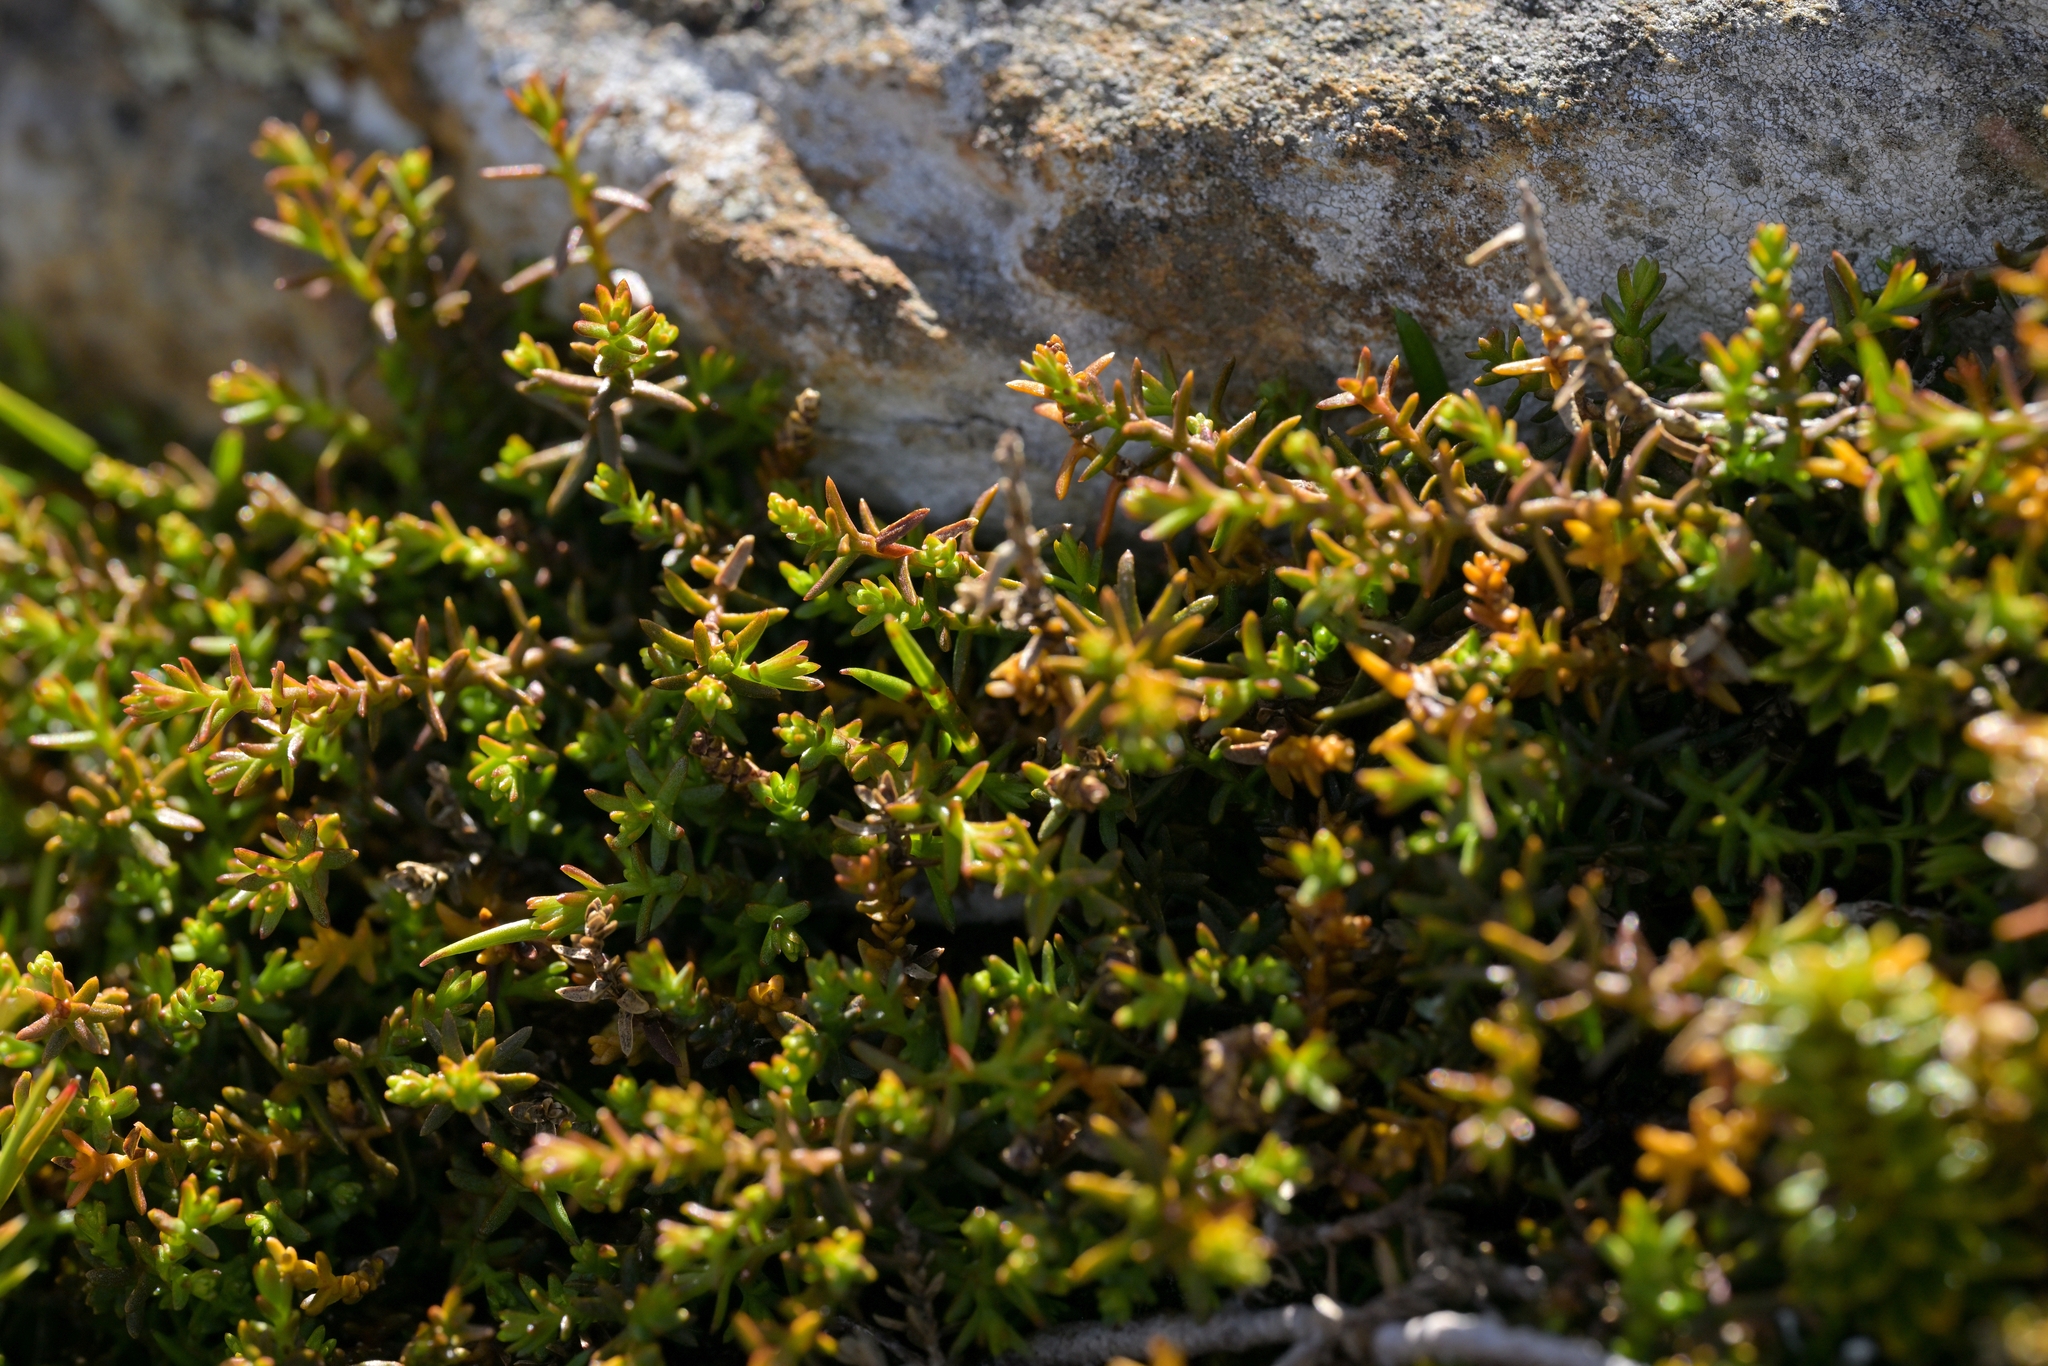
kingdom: Plantae
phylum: Tracheophyta
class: Pinopsida
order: Pinales
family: Podocarpaceae
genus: Lepidothamnus
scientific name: Lepidothamnus laxifolius
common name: Pygmy pine
